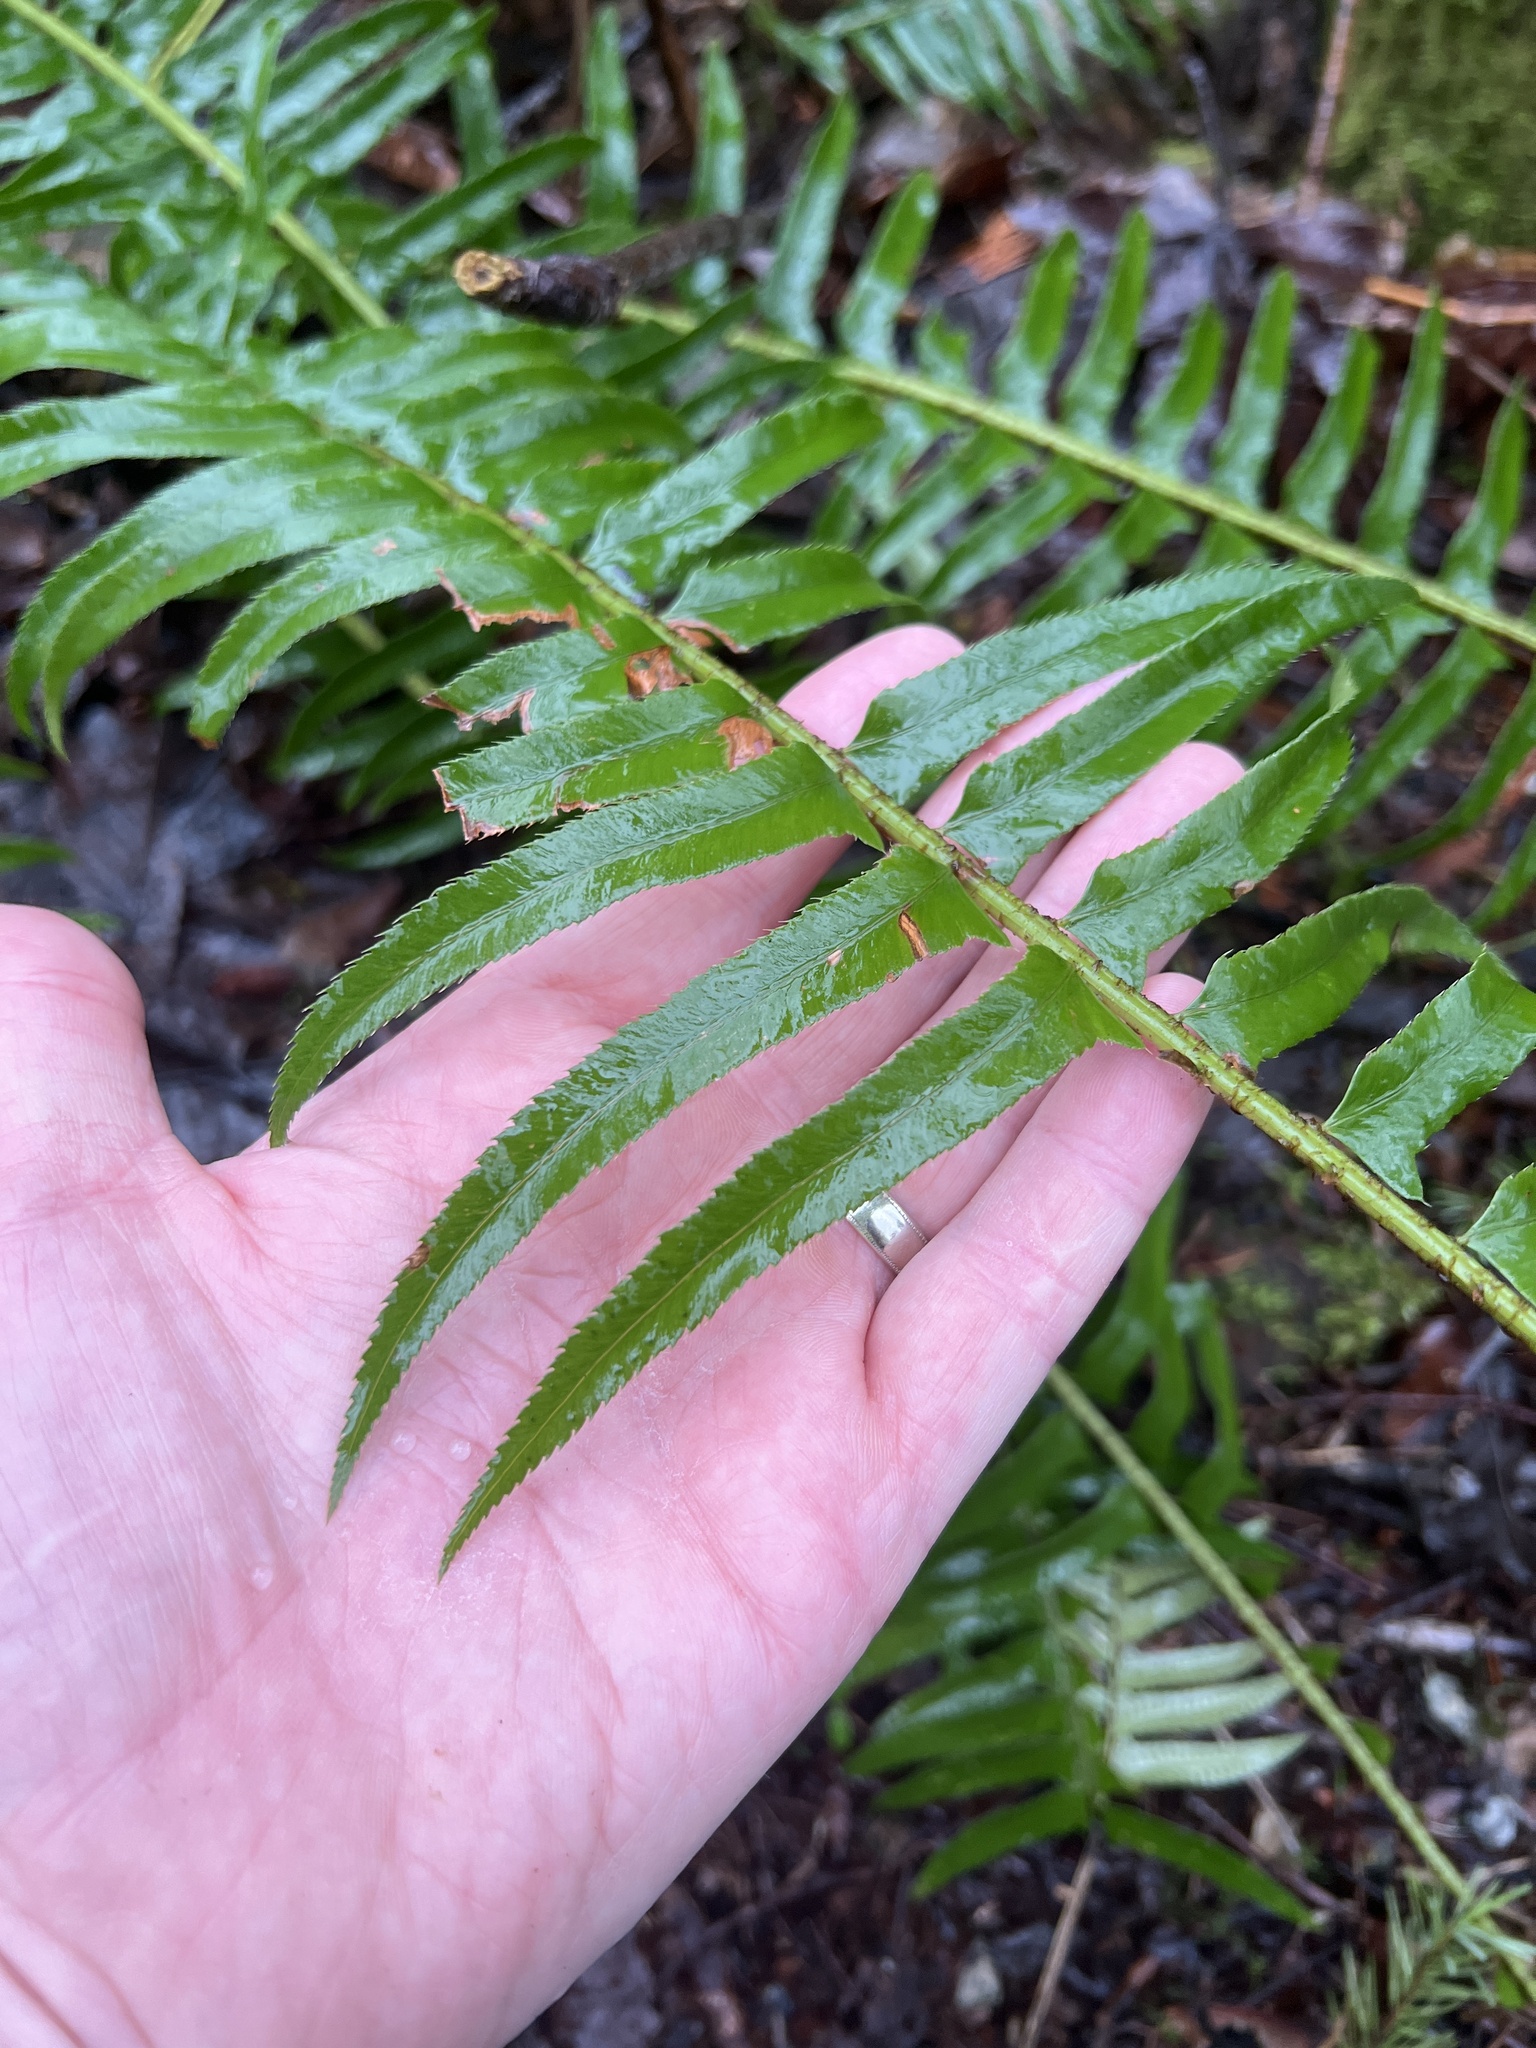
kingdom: Plantae
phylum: Tracheophyta
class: Polypodiopsida
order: Polypodiales
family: Dryopteridaceae
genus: Polystichum
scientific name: Polystichum munitum
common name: Western sword-fern
